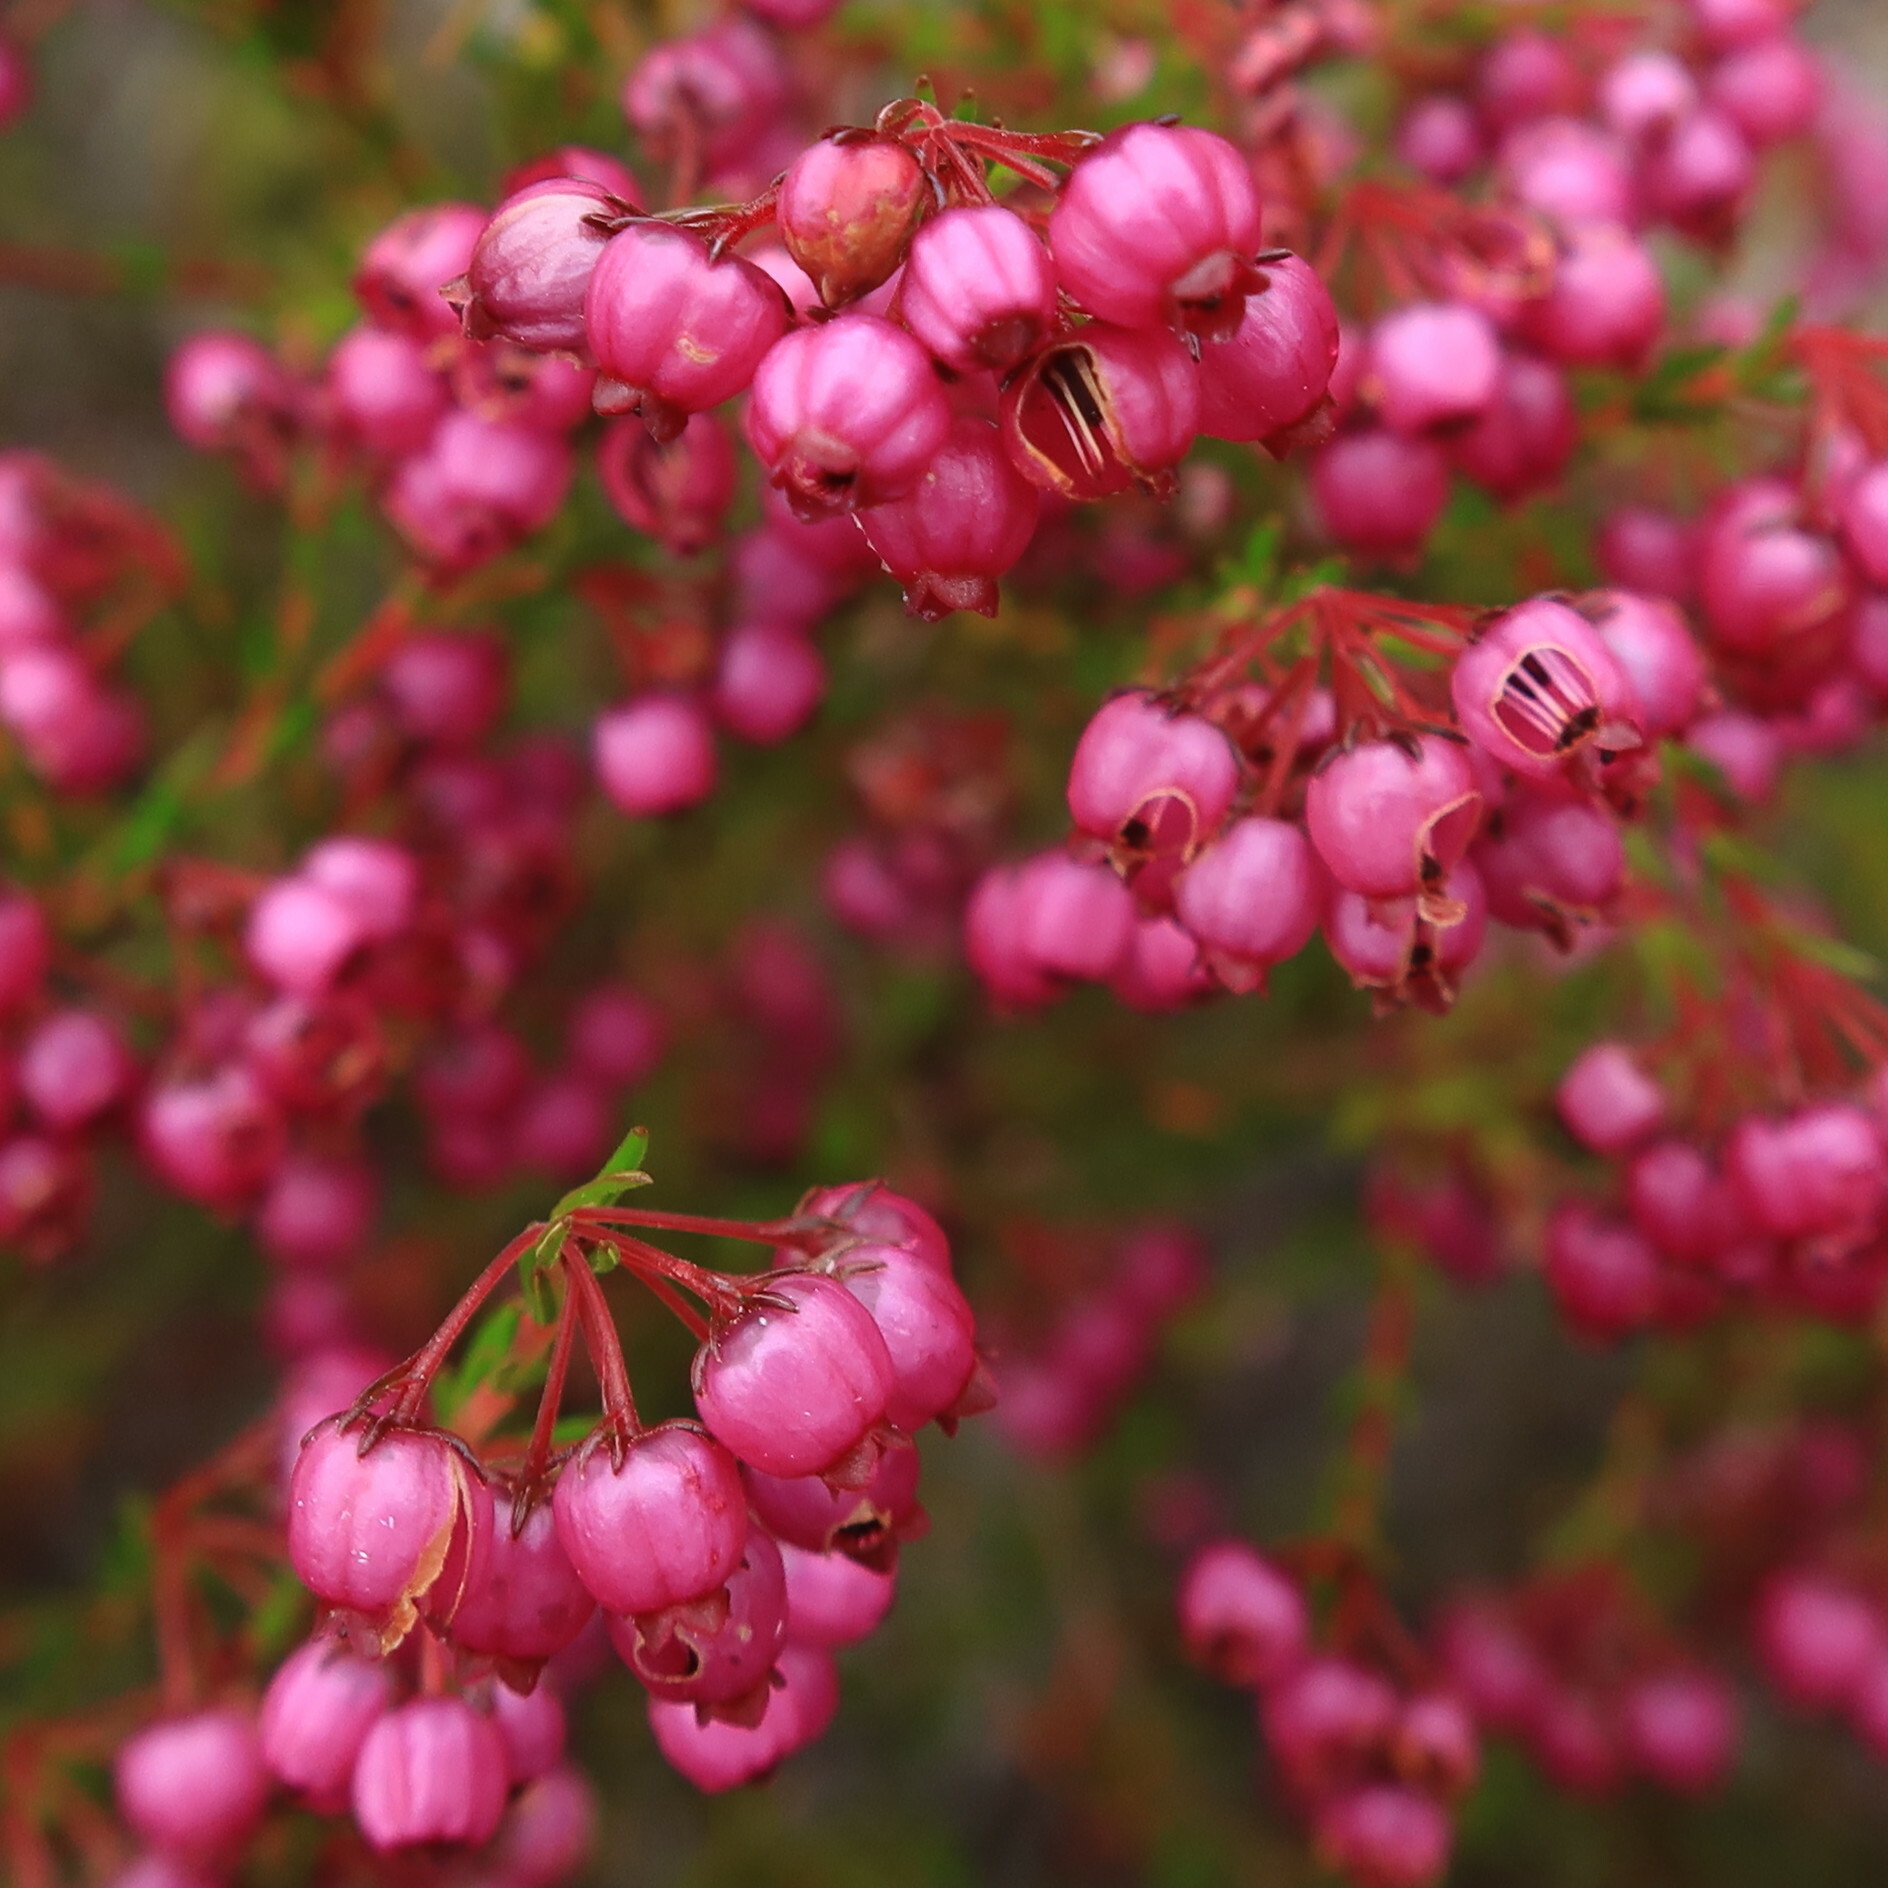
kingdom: Plantae
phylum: Tracheophyta
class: Magnoliopsida
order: Ericales
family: Ericaceae
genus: Erica
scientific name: Erica multumbellifera
